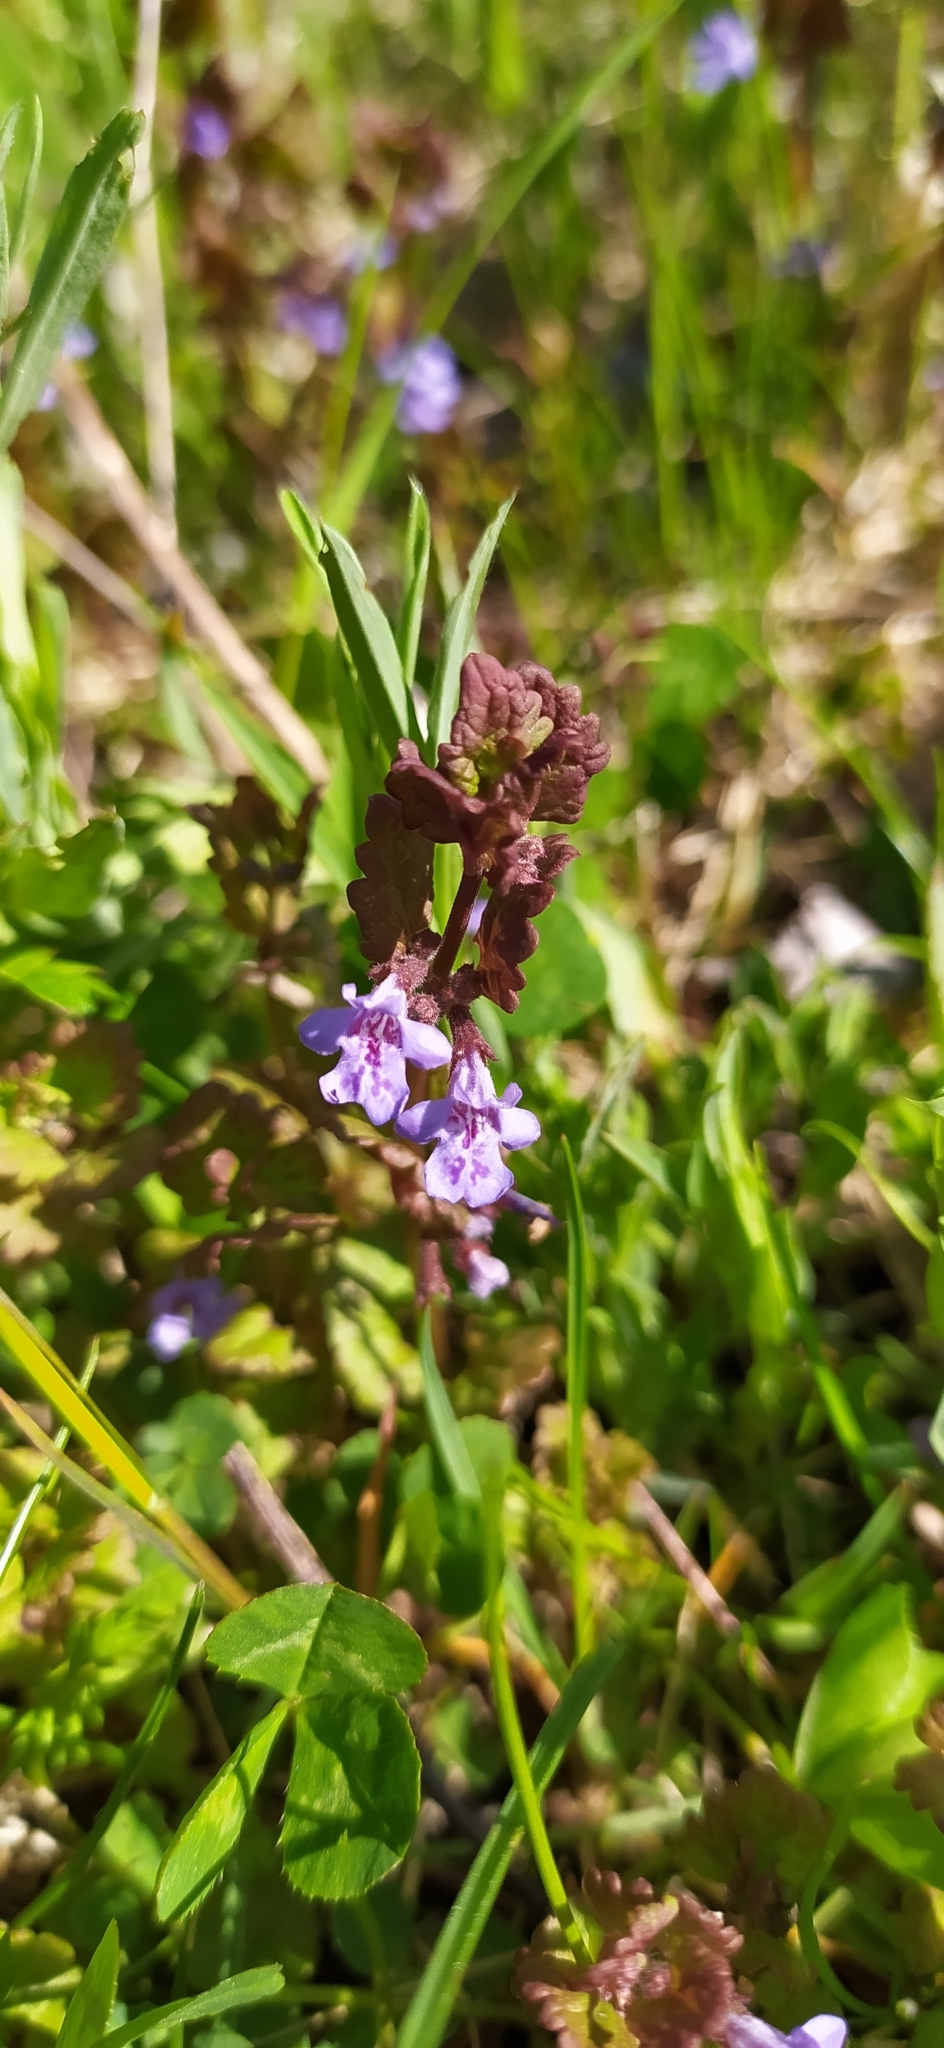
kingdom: Plantae
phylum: Tracheophyta
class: Magnoliopsida
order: Lamiales
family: Lamiaceae
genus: Glechoma
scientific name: Glechoma hederacea
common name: Ground ivy
